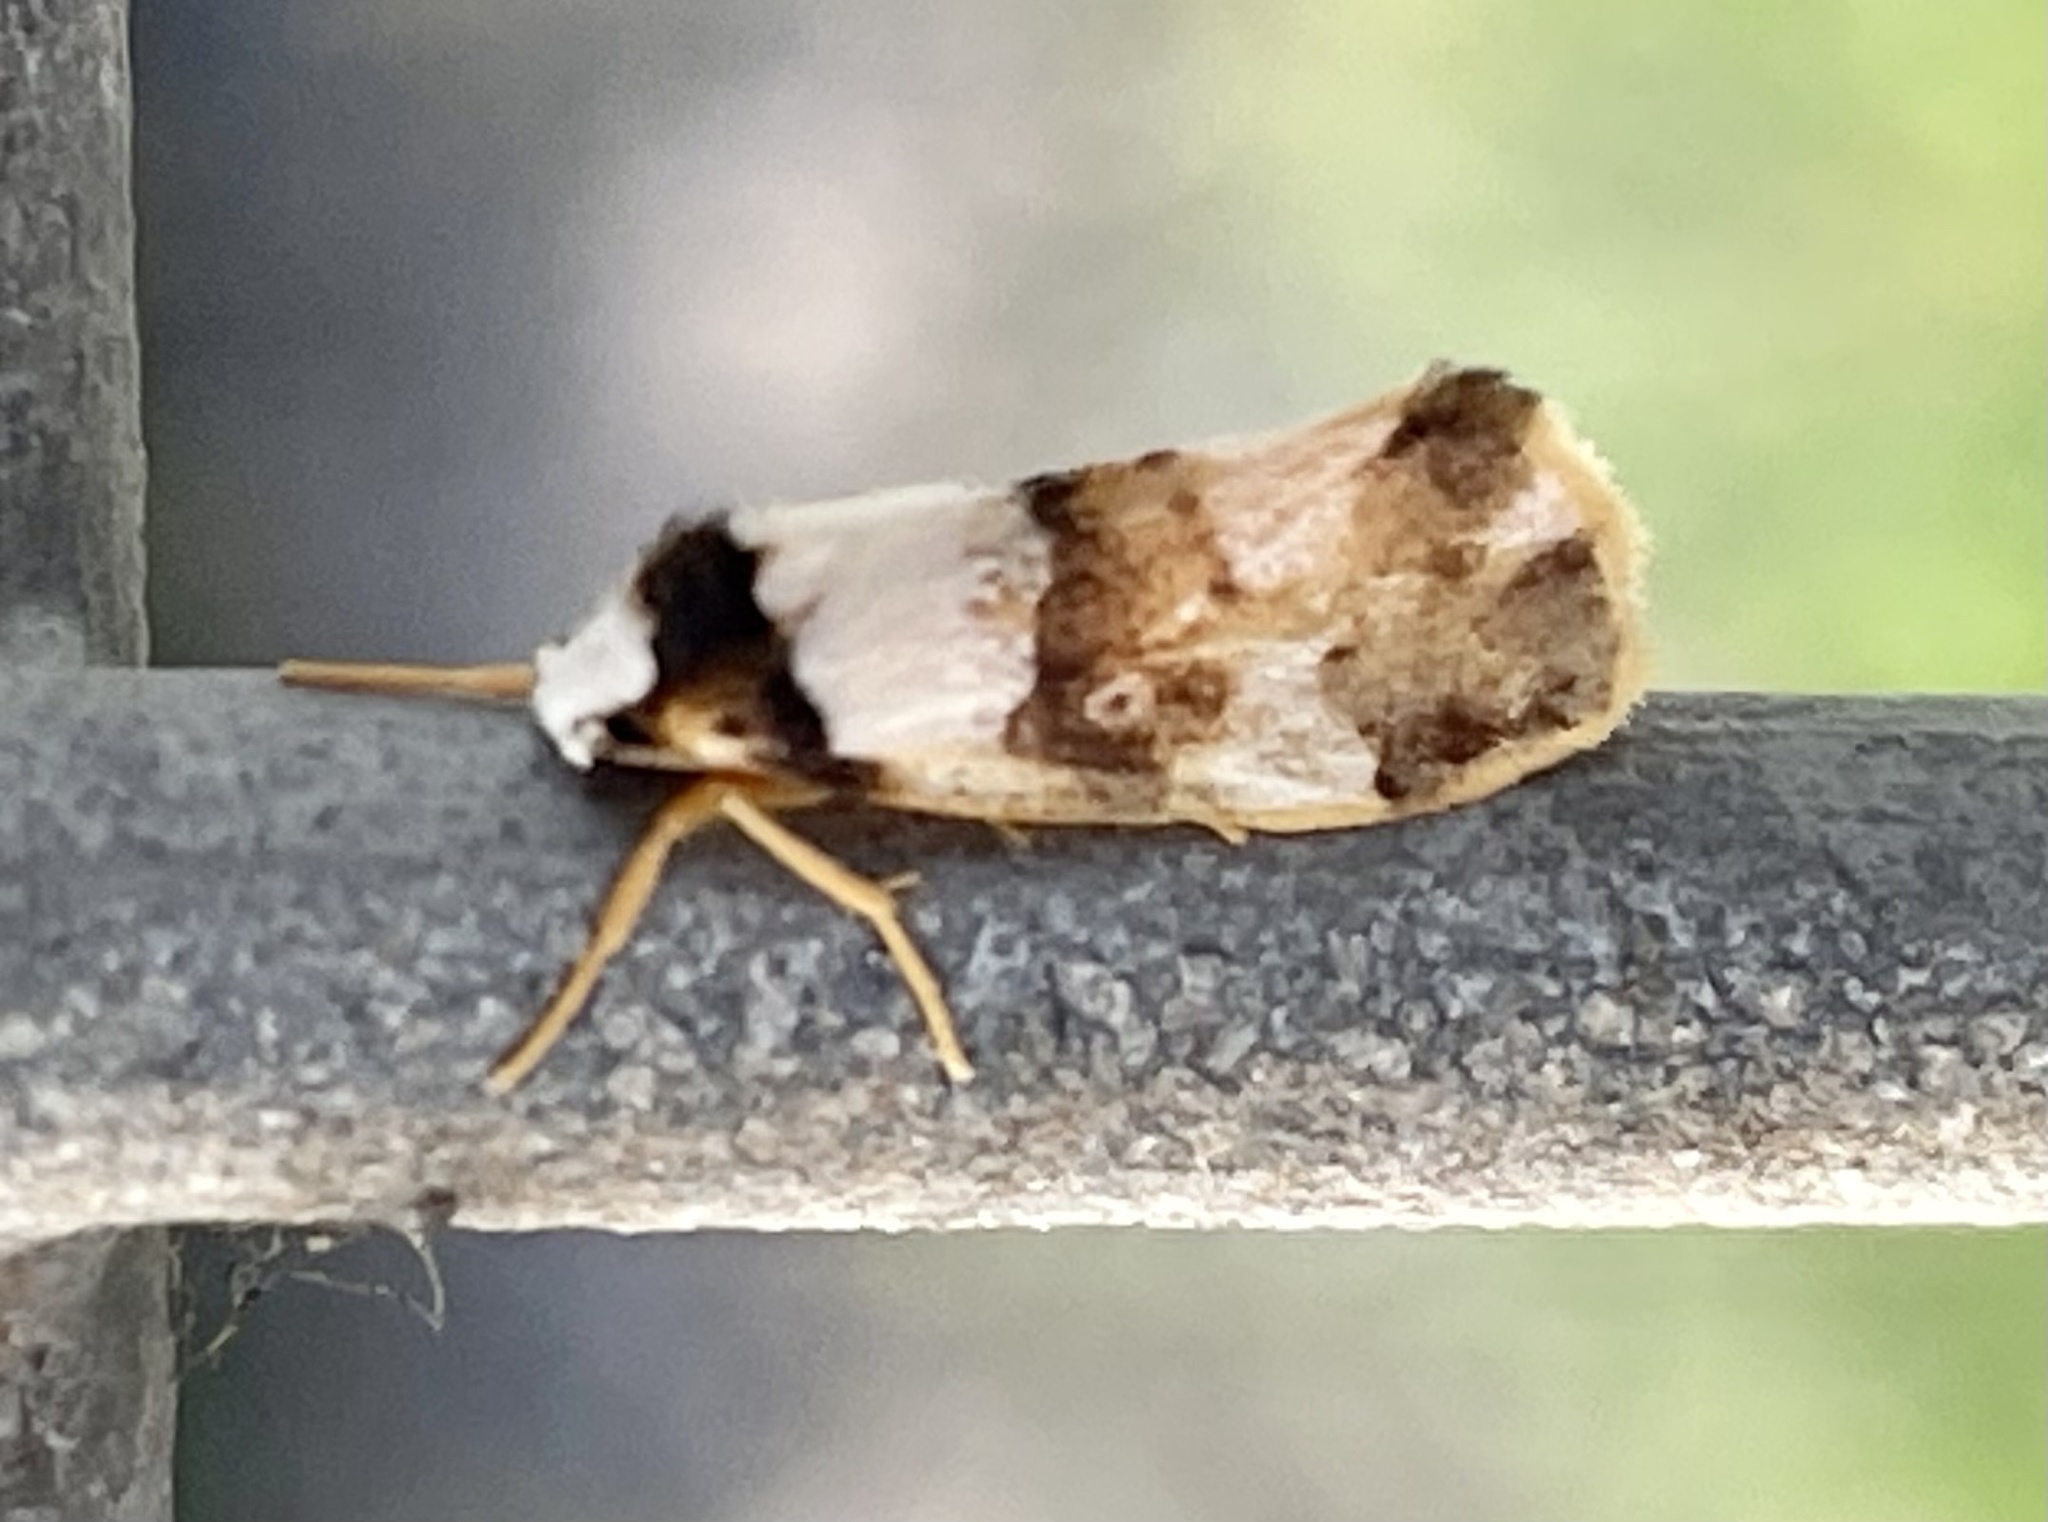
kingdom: Animalia
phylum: Arthropoda
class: Insecta
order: Lepidoptera
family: Erebidae
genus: Philenora
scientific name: Philenora aspectalella
